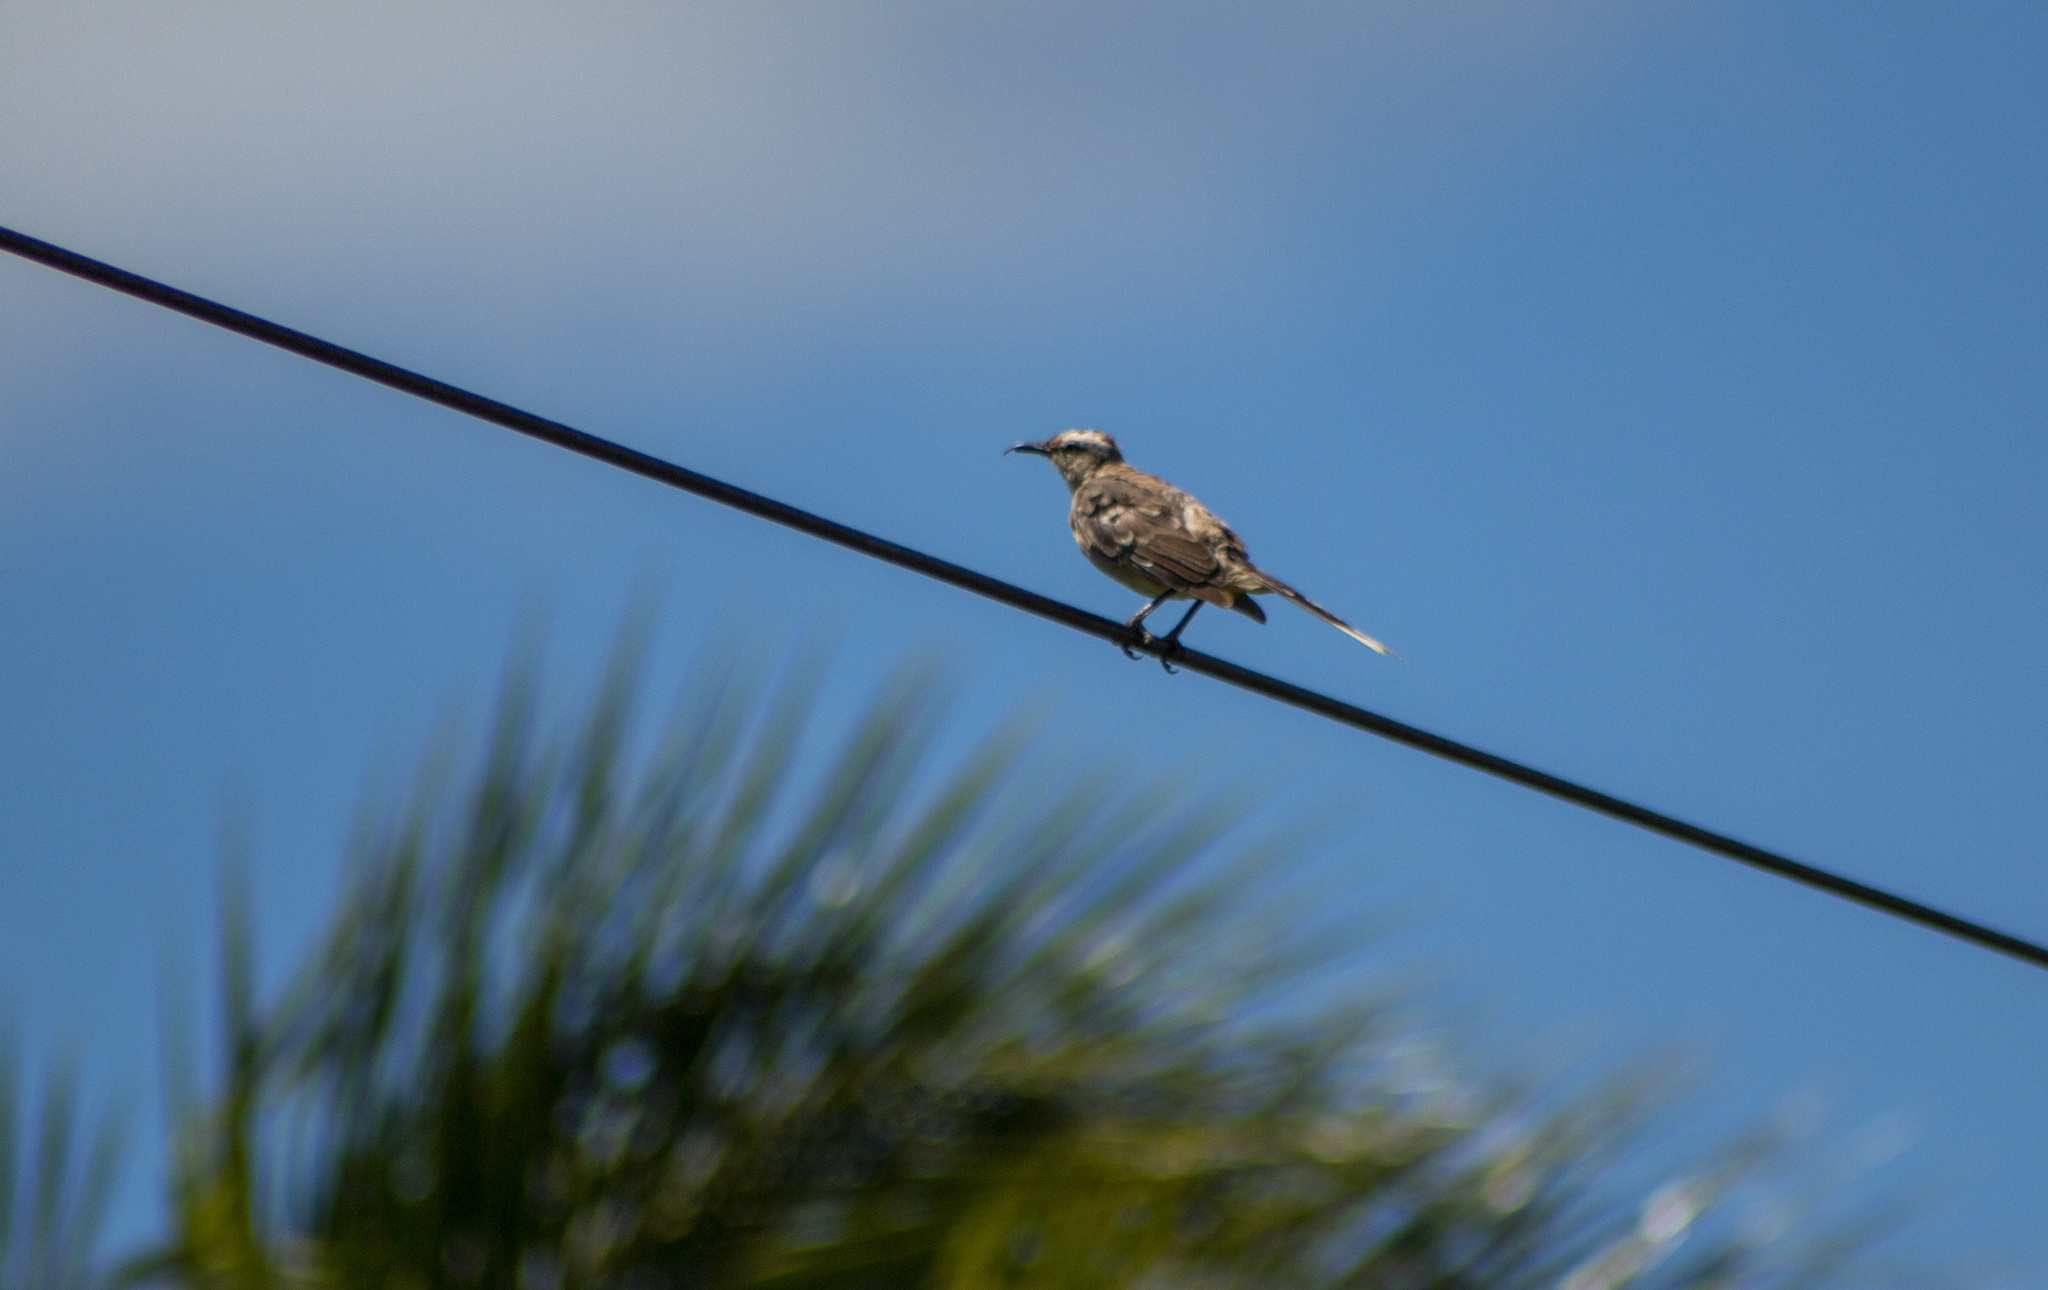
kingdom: Animalia
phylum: Chordata
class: Aves
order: Passeriformes
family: Mimidae
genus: Mimus
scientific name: Mimus saturninus
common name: Chalk-browed mockingbird
